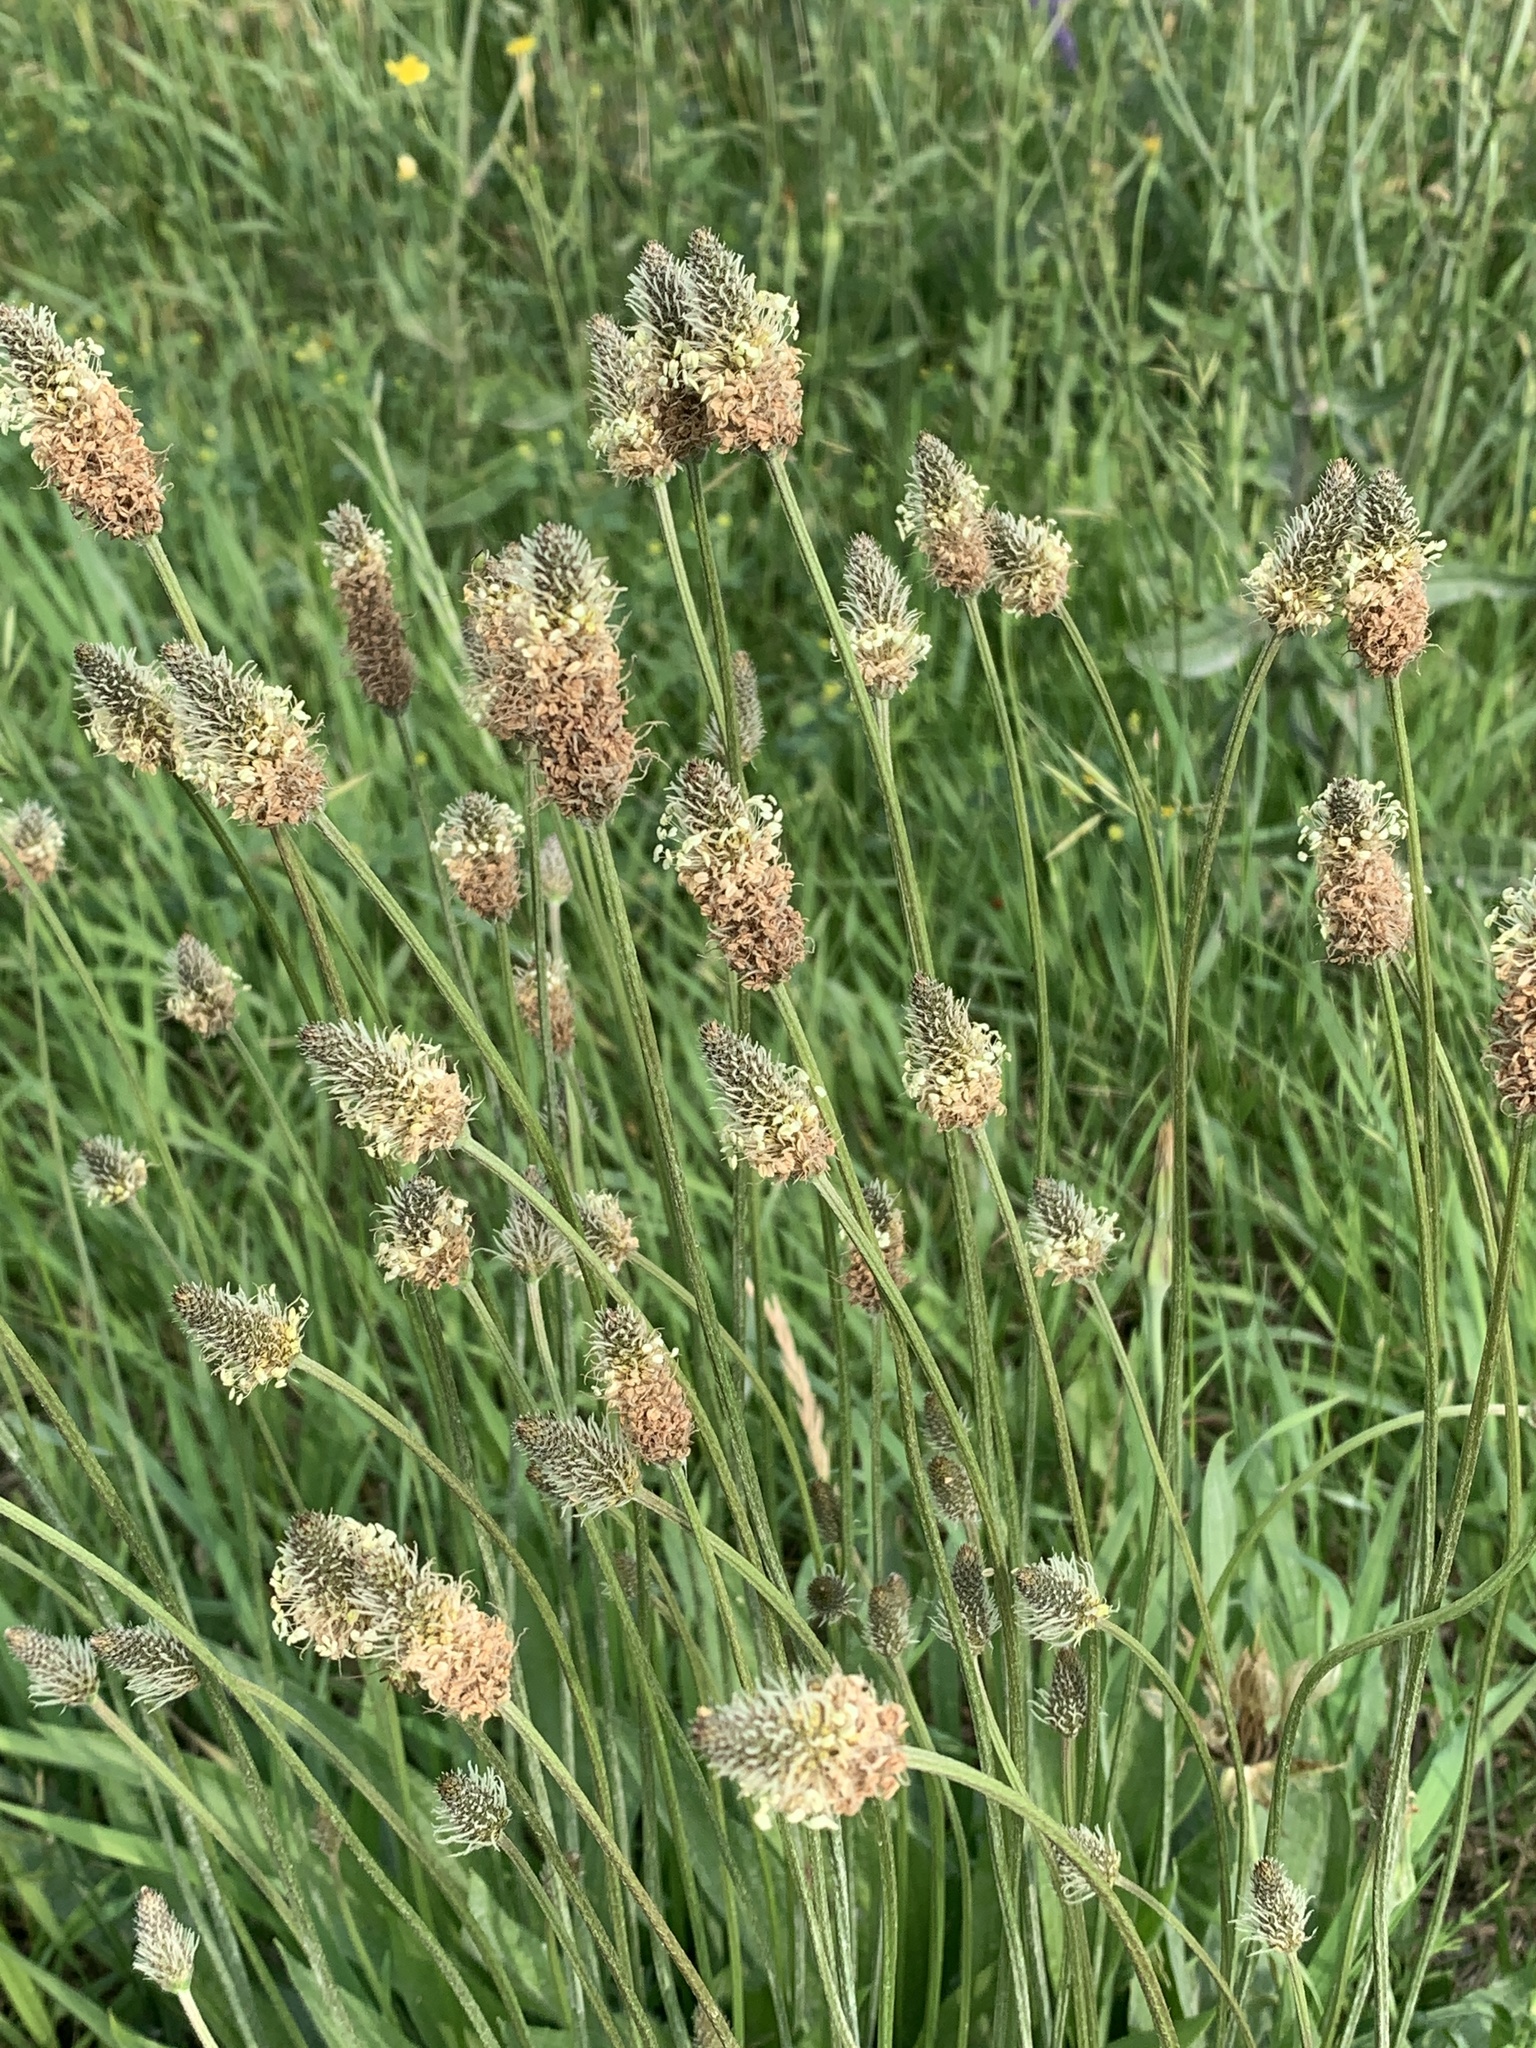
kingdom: Plantae
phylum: Tracheophyta
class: Magnoliopsida
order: Lamiales
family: Plantaginaceae
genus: Plantago
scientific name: Plantago lanceolata
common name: Ribwort plantain
